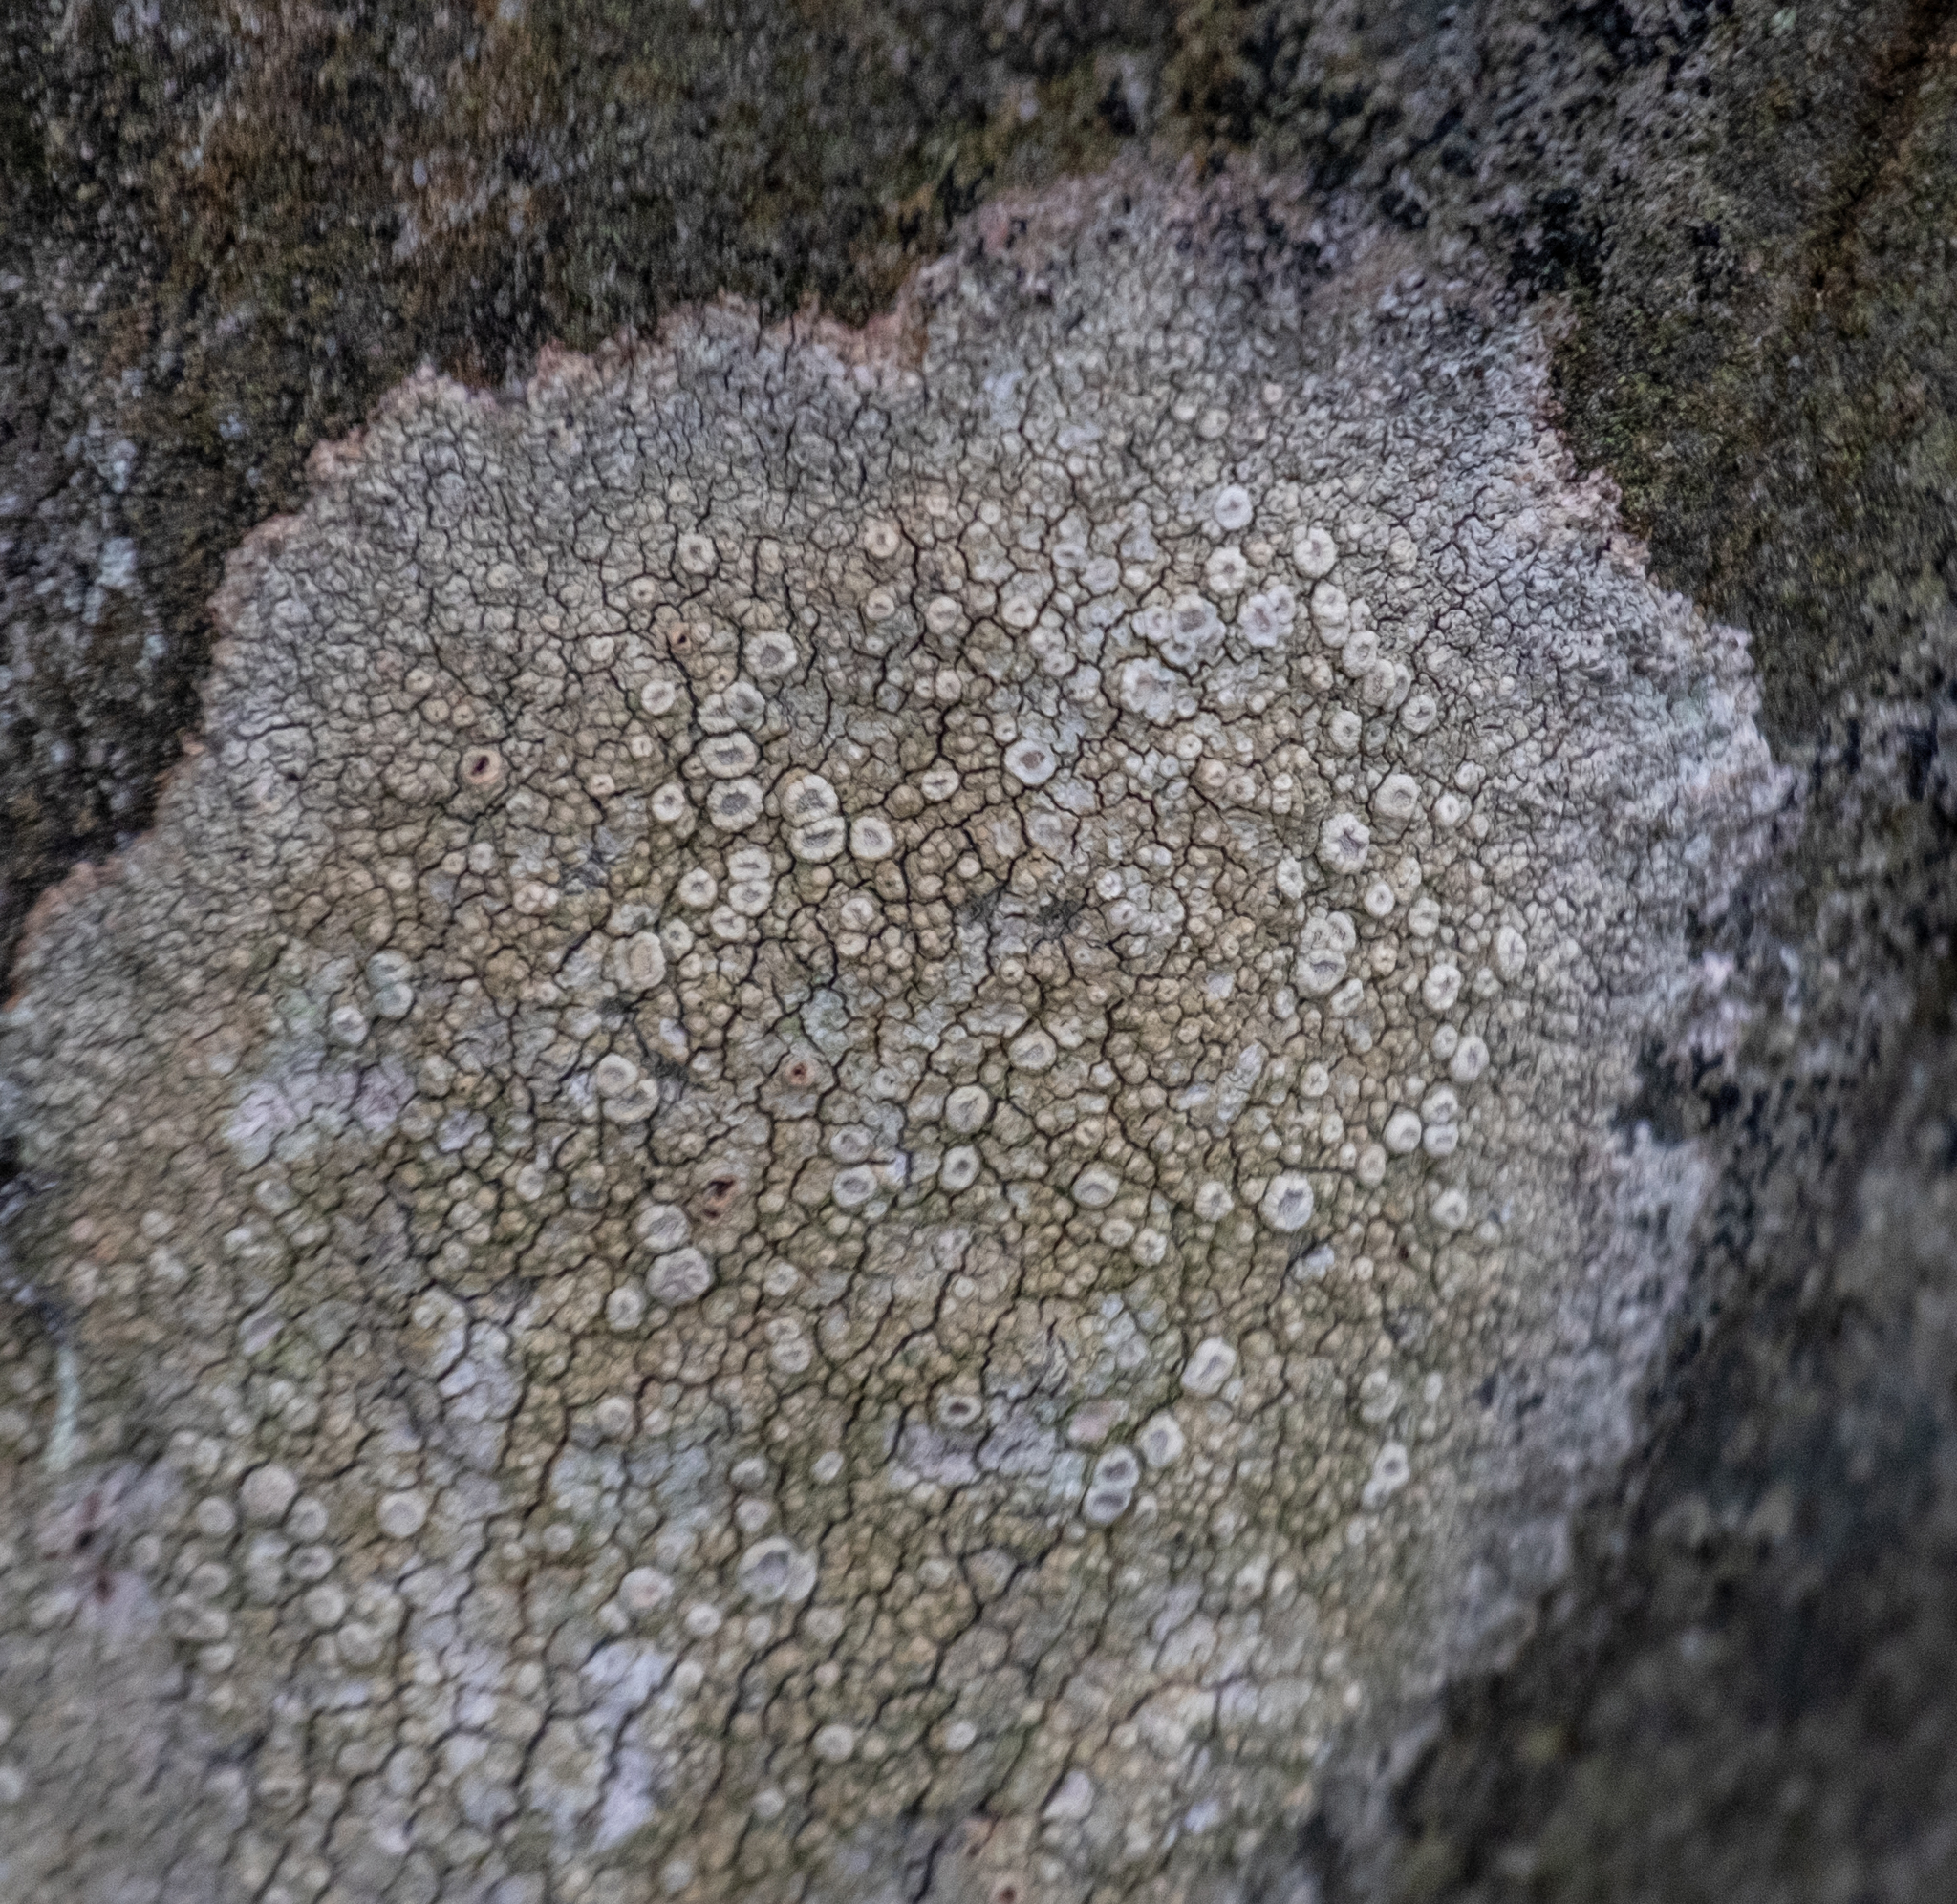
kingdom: Fungi
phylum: Ascomycota
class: Lecanoromycetes
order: Pertusariales
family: Ochrolechiaceae
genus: Ochrolechia
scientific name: Ochrolechia parella
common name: Crab's eye lichen
